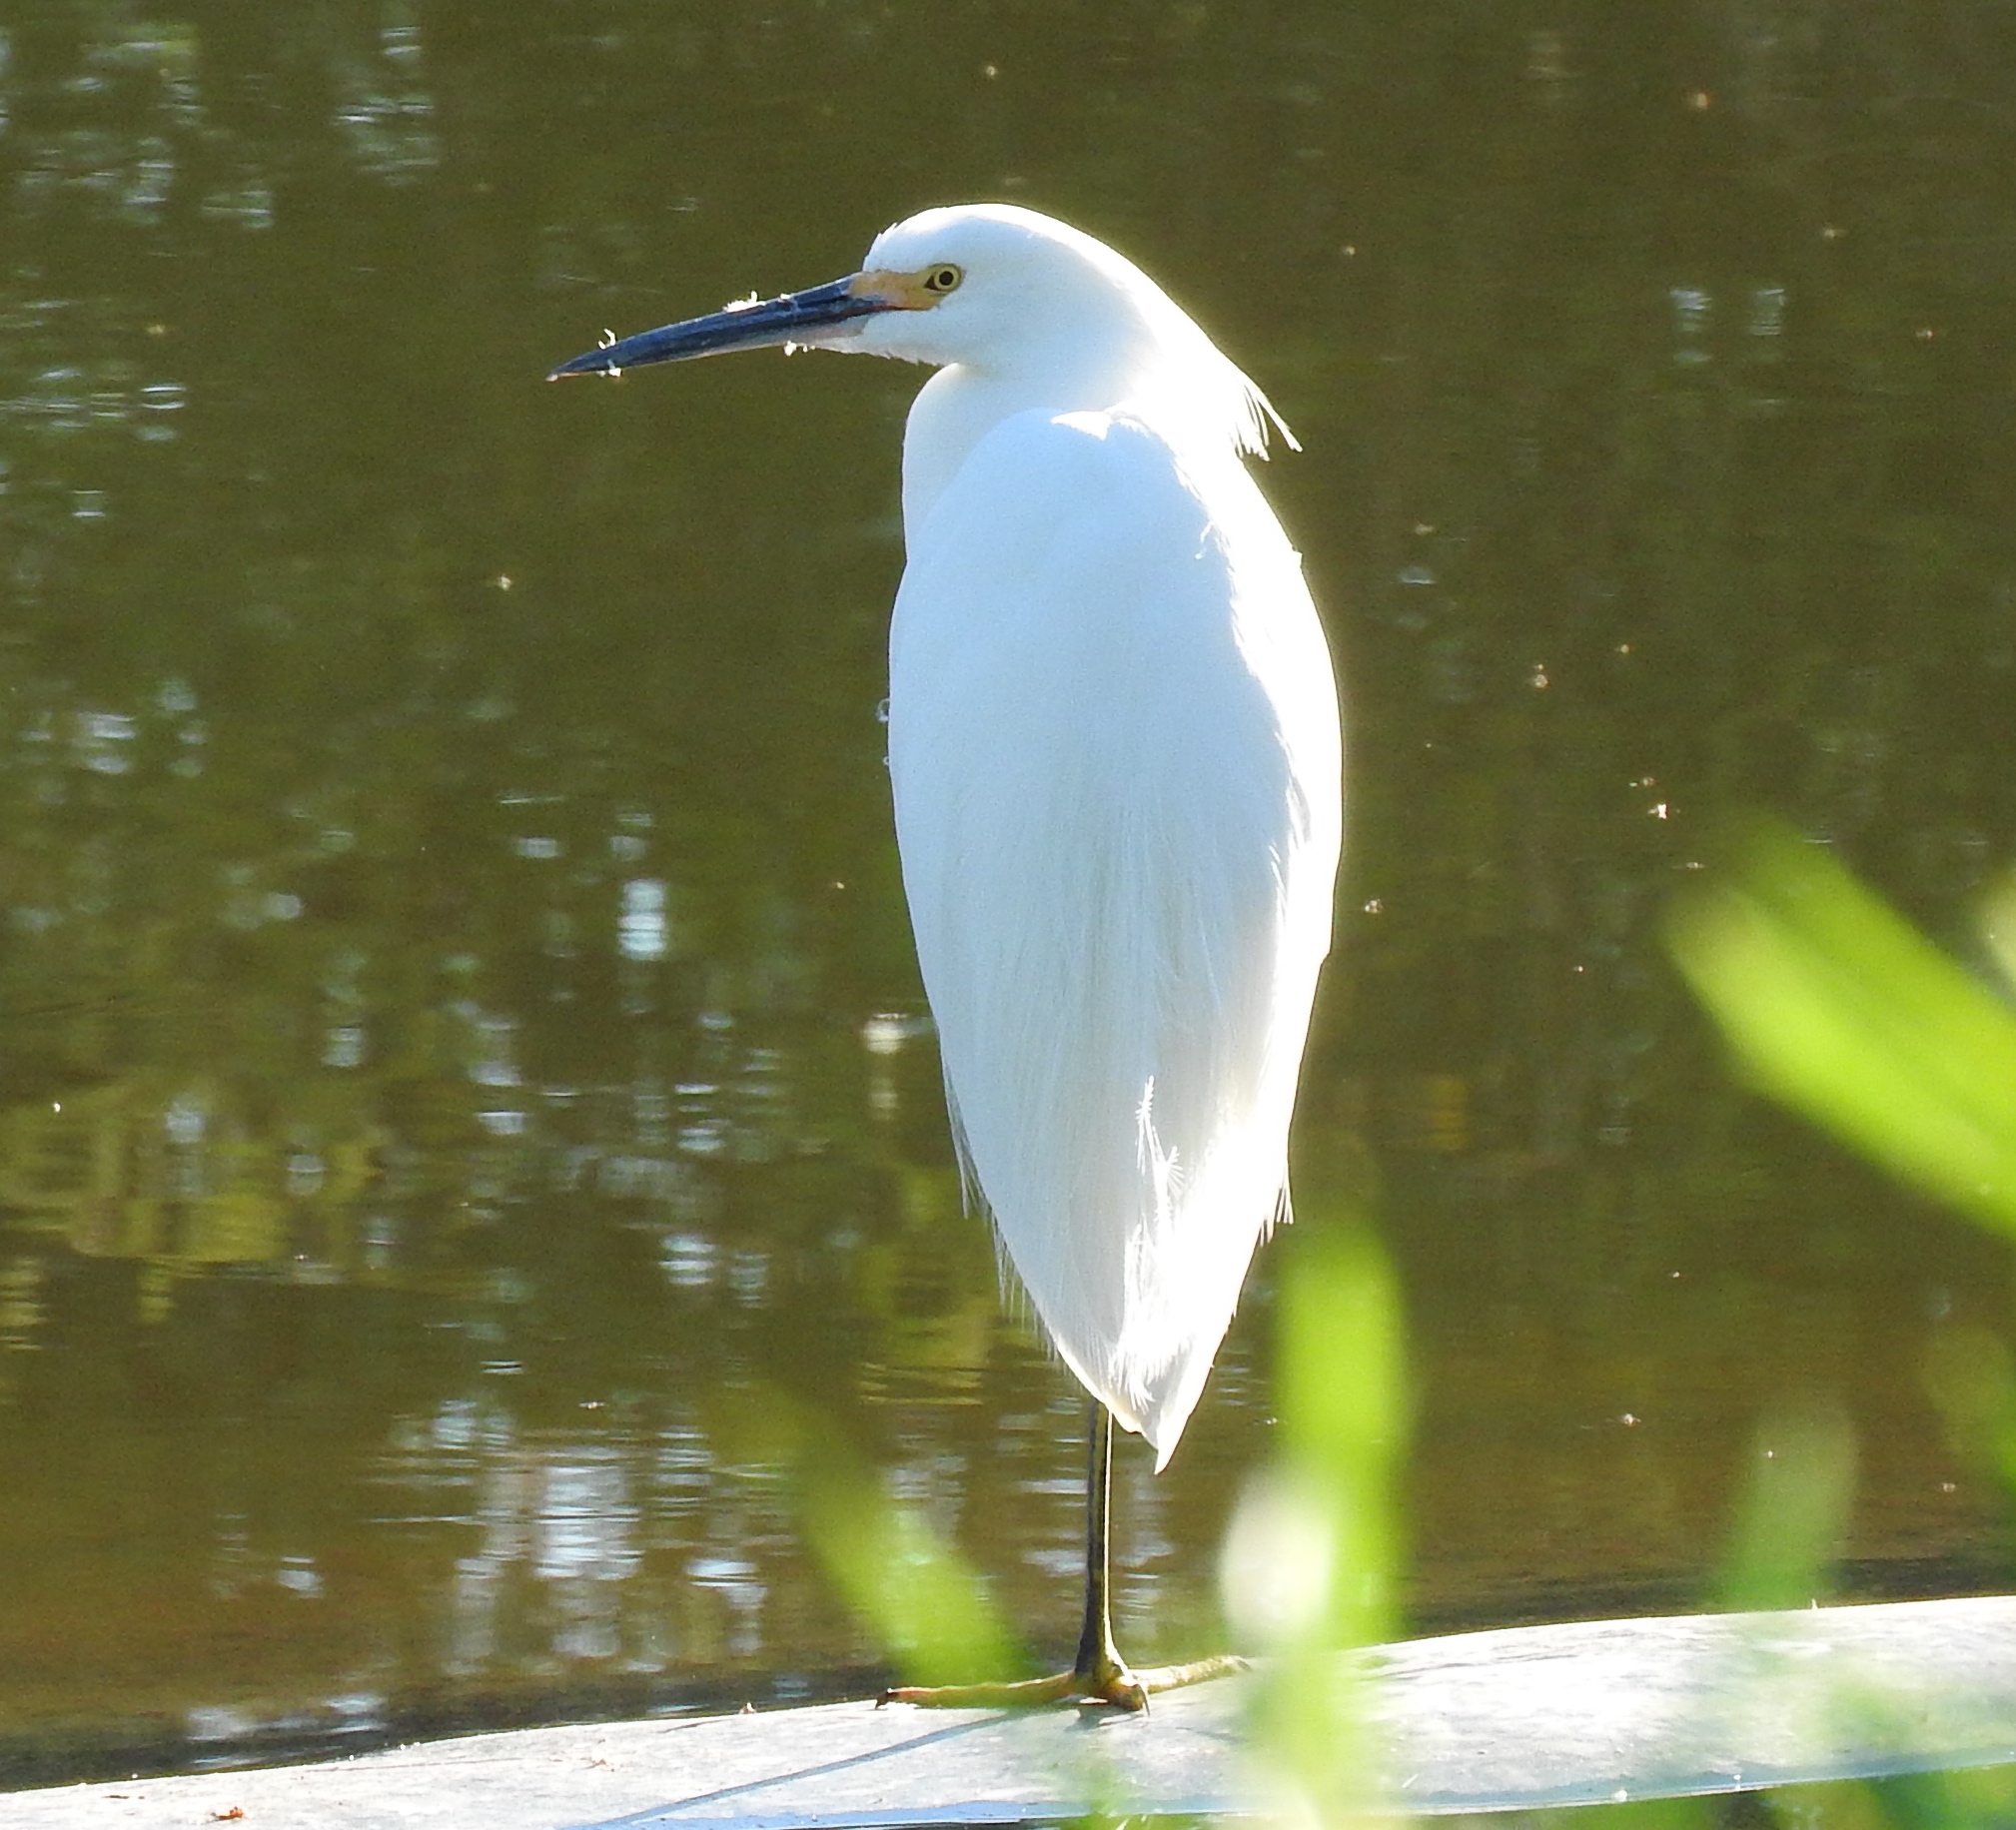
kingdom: Animalia
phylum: Chordata
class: Aves
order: Pelecaniformes
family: Ardeidae
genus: Egretta
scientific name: Egretta thula
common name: Snowy egret
